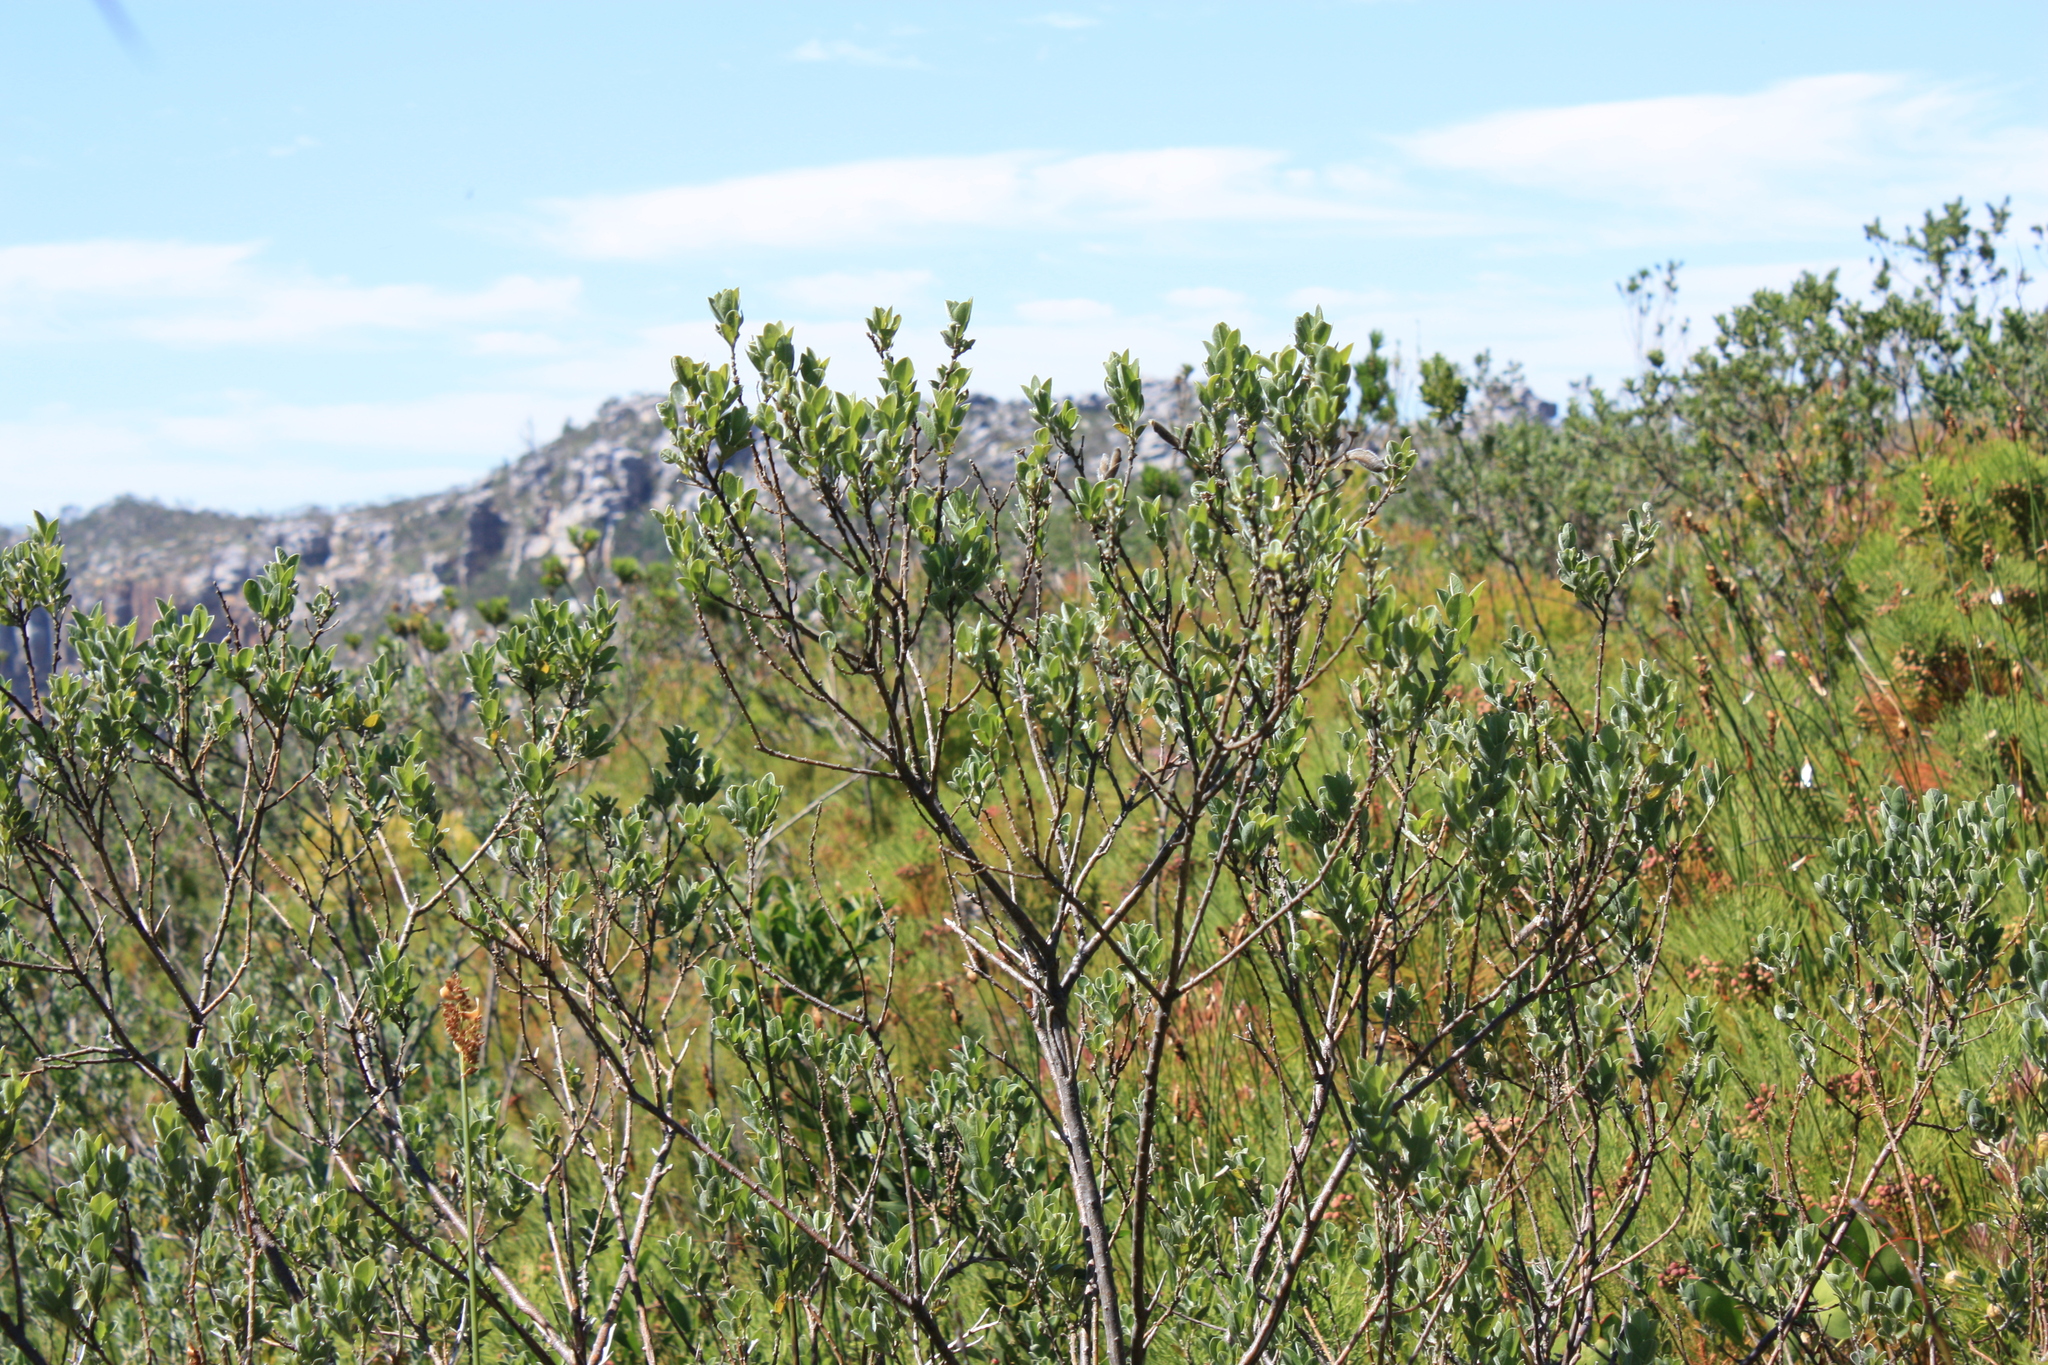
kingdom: Plantae
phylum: Tracheophyta
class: Magnoliopsida
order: Fabales
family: Fabaceae
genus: Podalyria
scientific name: Podalyria calyptrata
